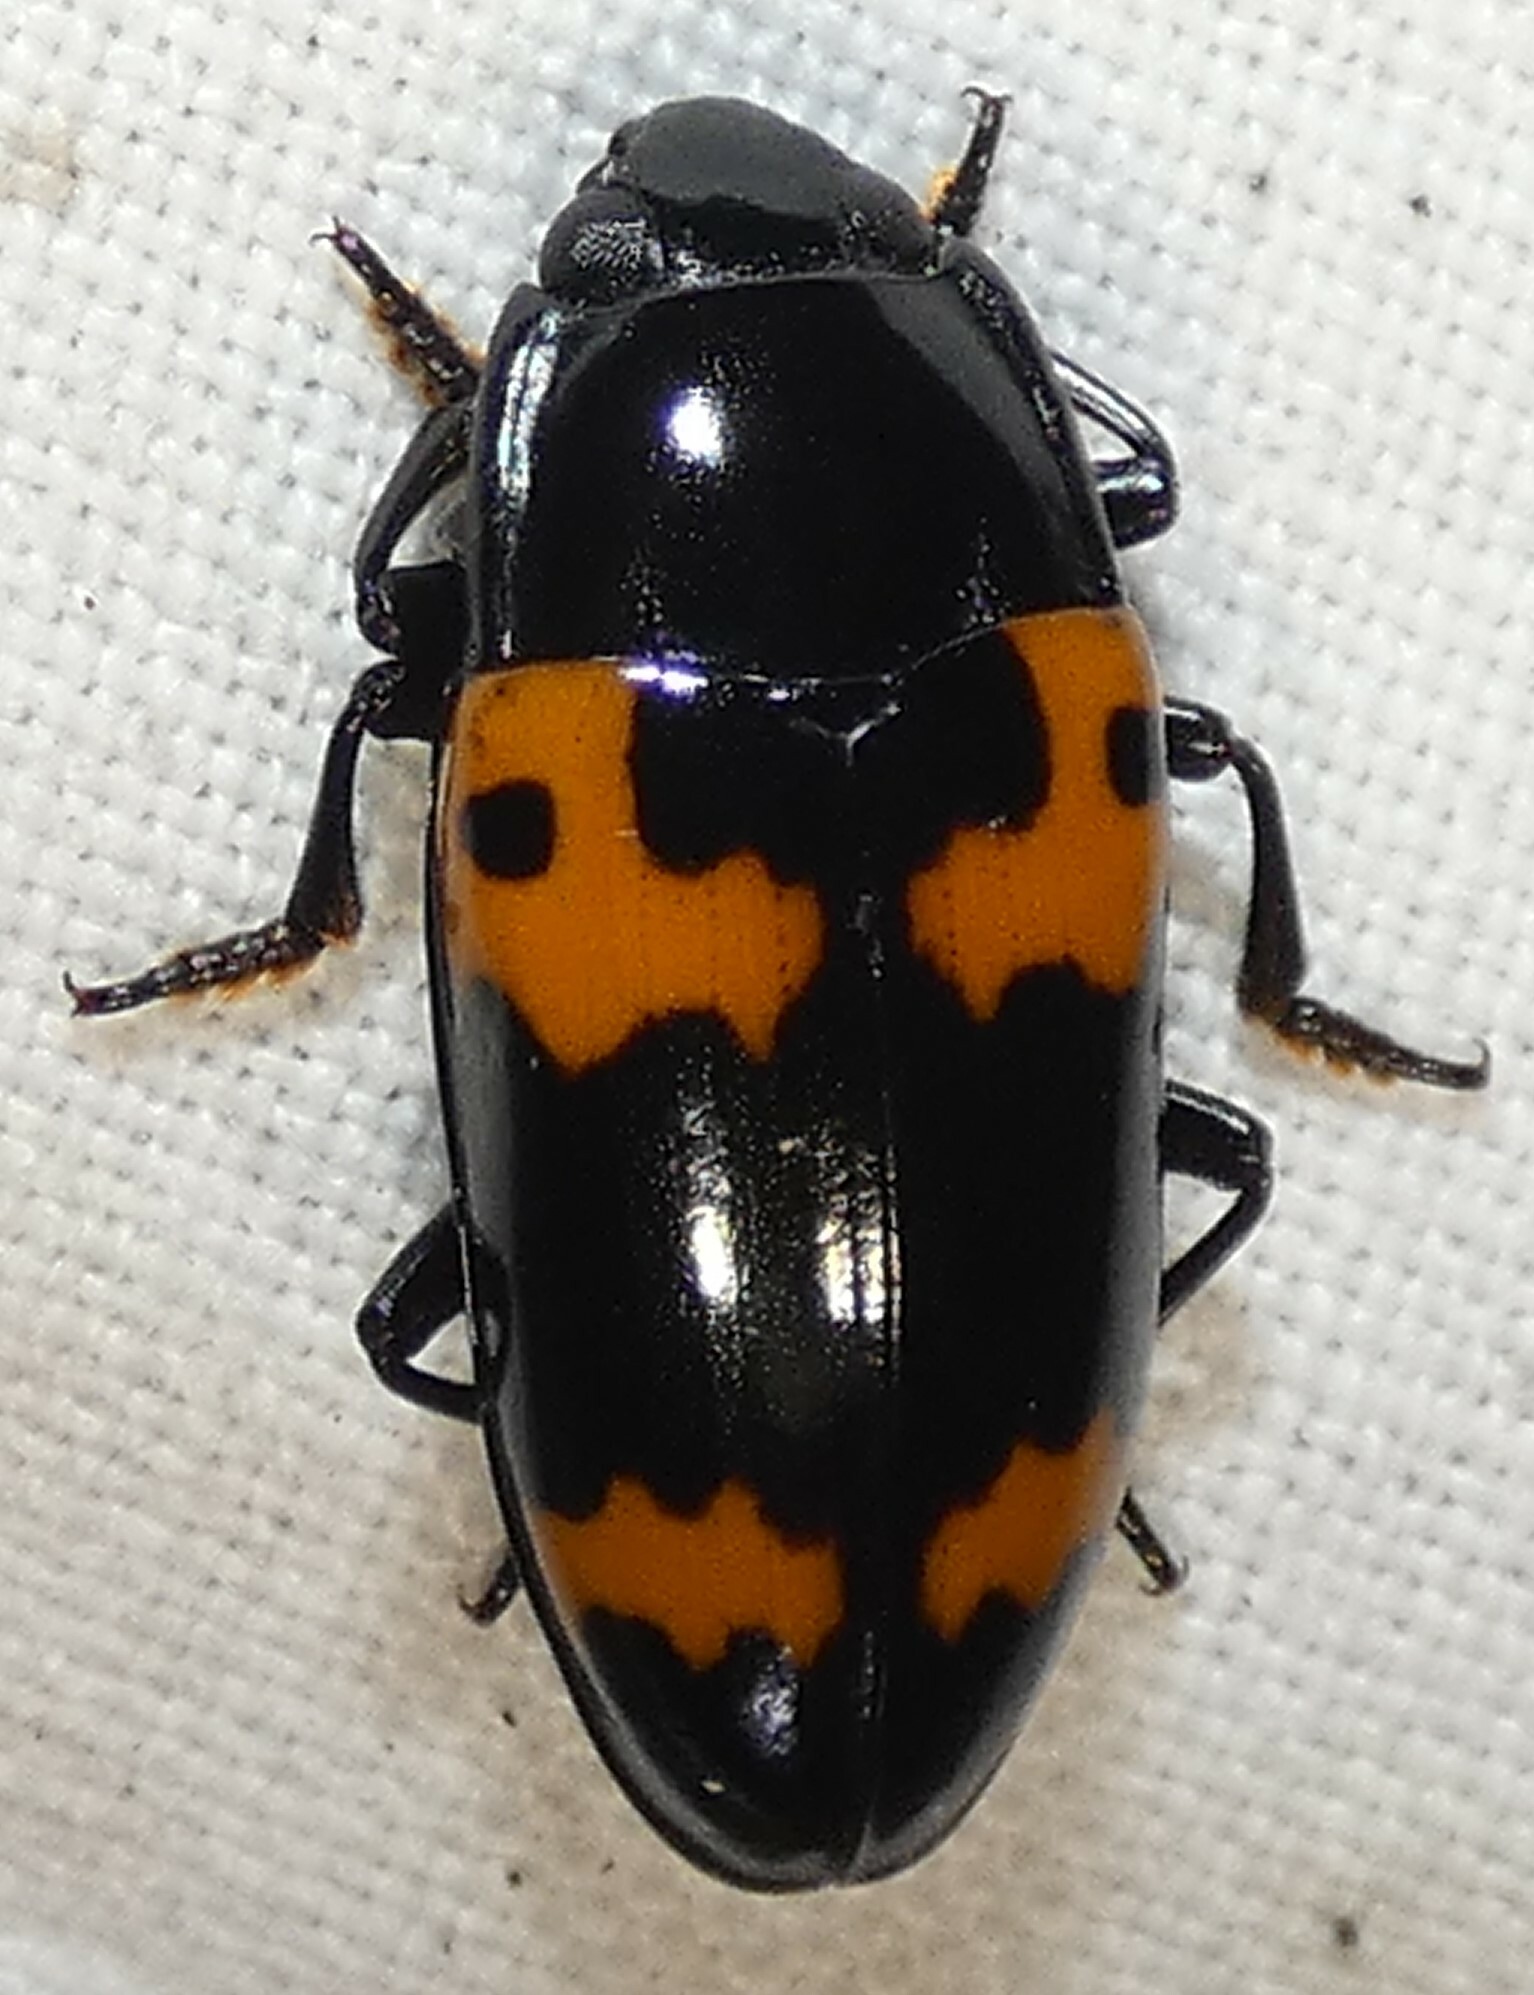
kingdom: Animalia
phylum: Arthropoda
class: Insecta
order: Coleoptera
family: Erotylidae
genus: Megalodacne
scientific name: Megalodacne fasciata
